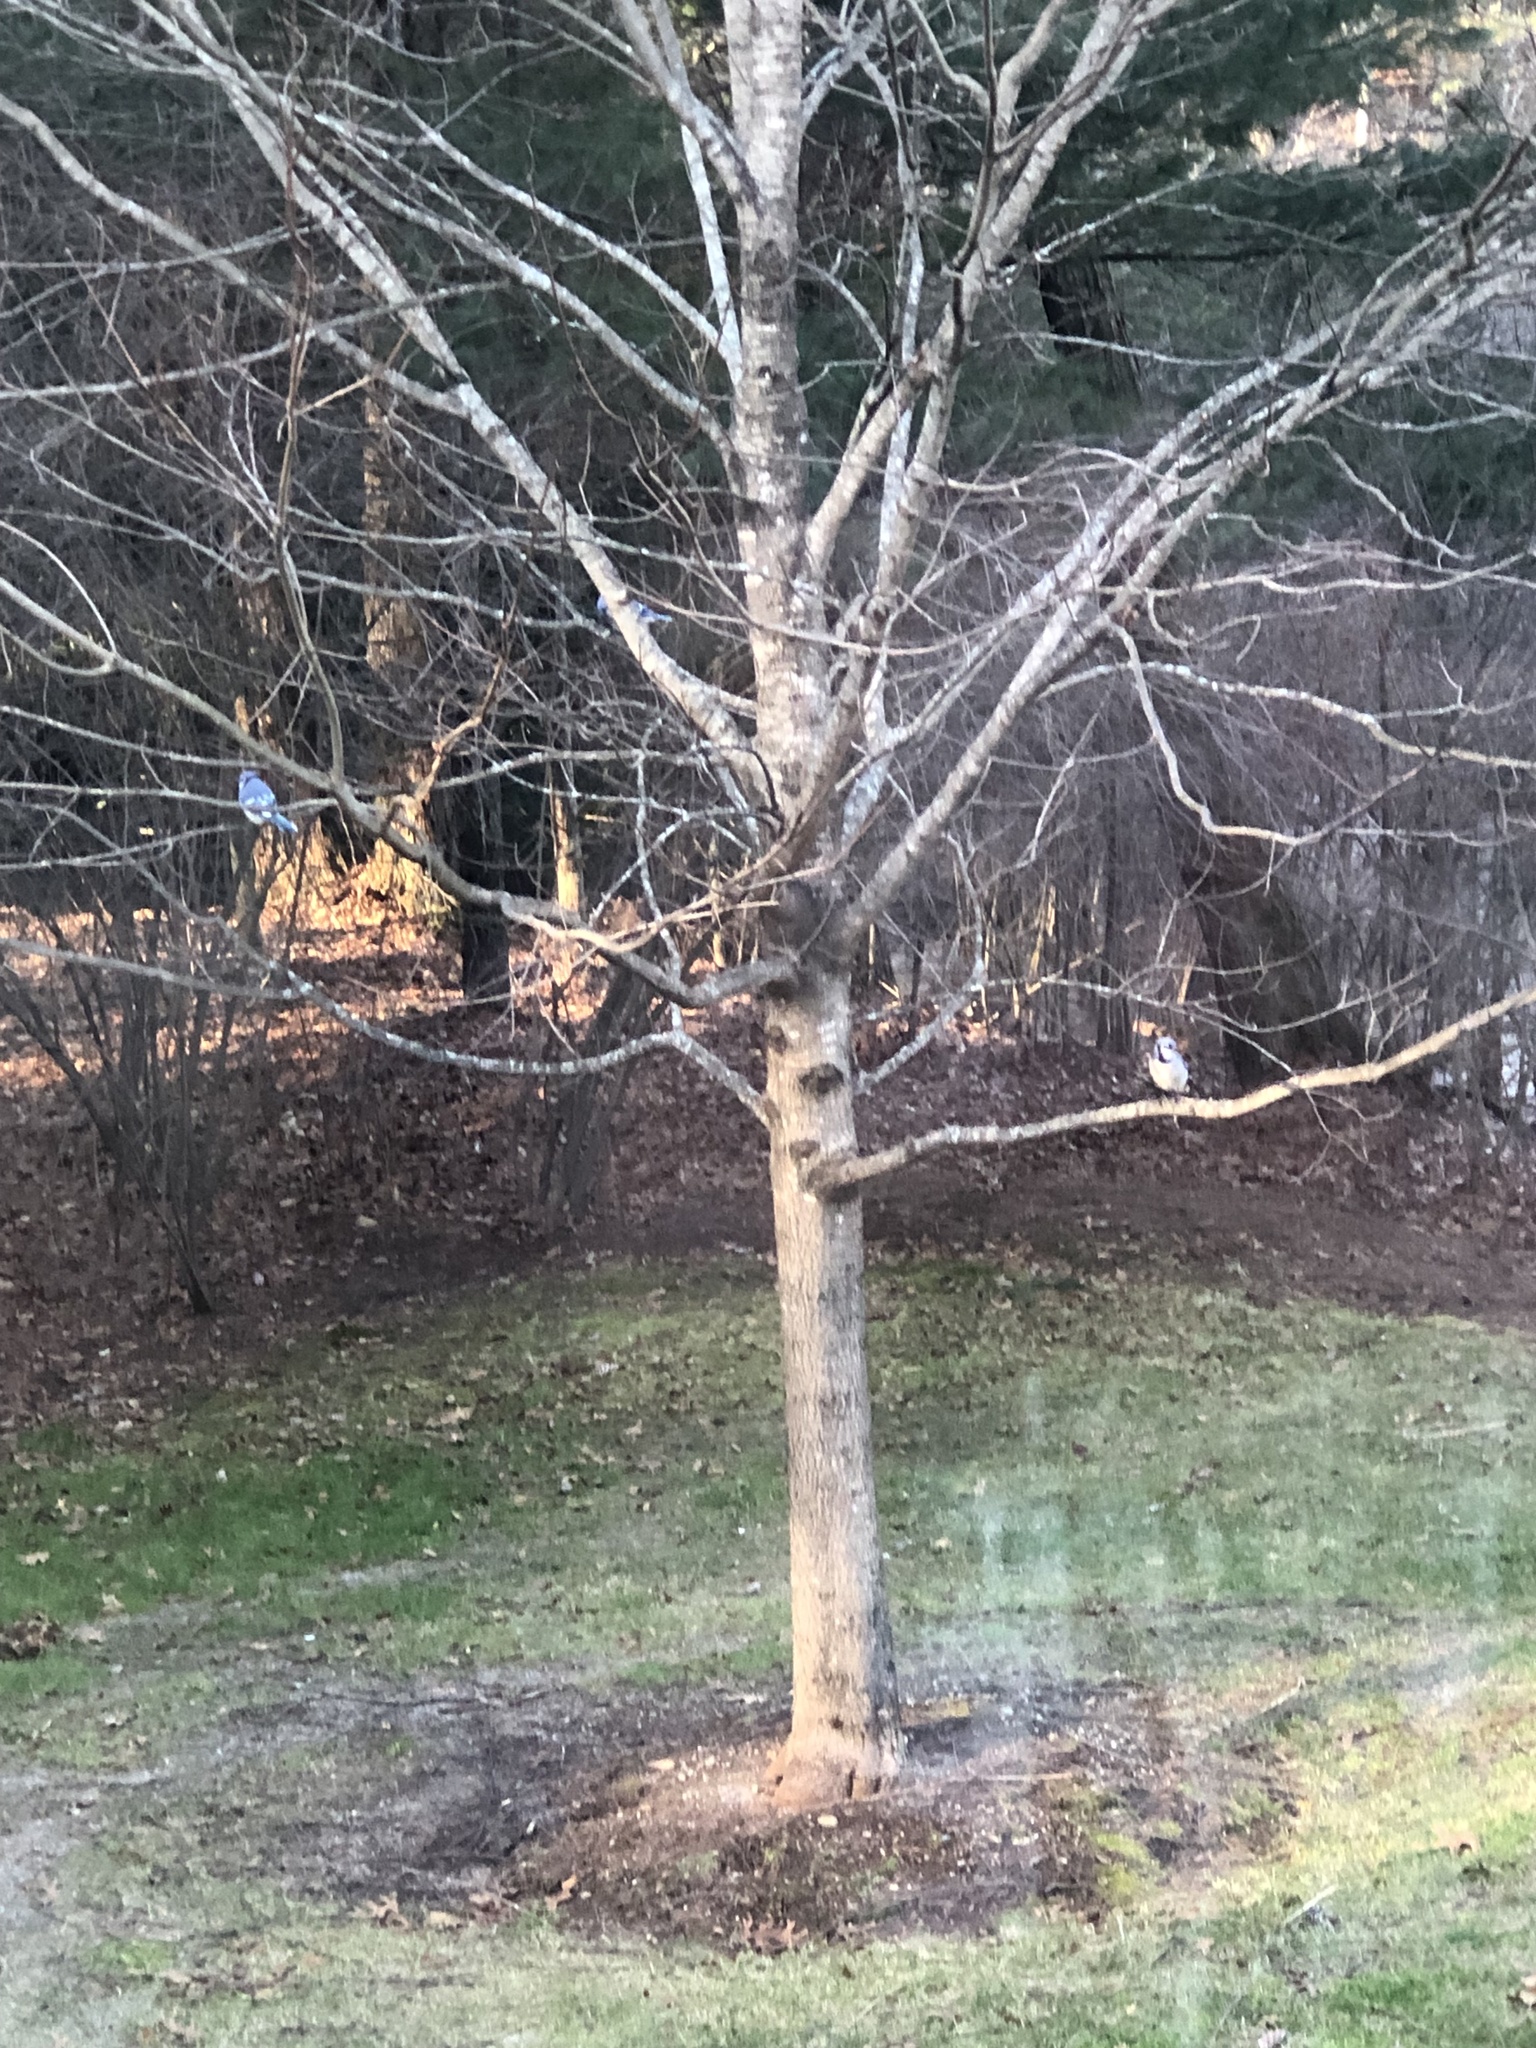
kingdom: Animalia
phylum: Chordata
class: Aves
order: Passeriformes
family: Corvidae
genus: Cyanocitta
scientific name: Cyanocitta cristata
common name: Blue jay
